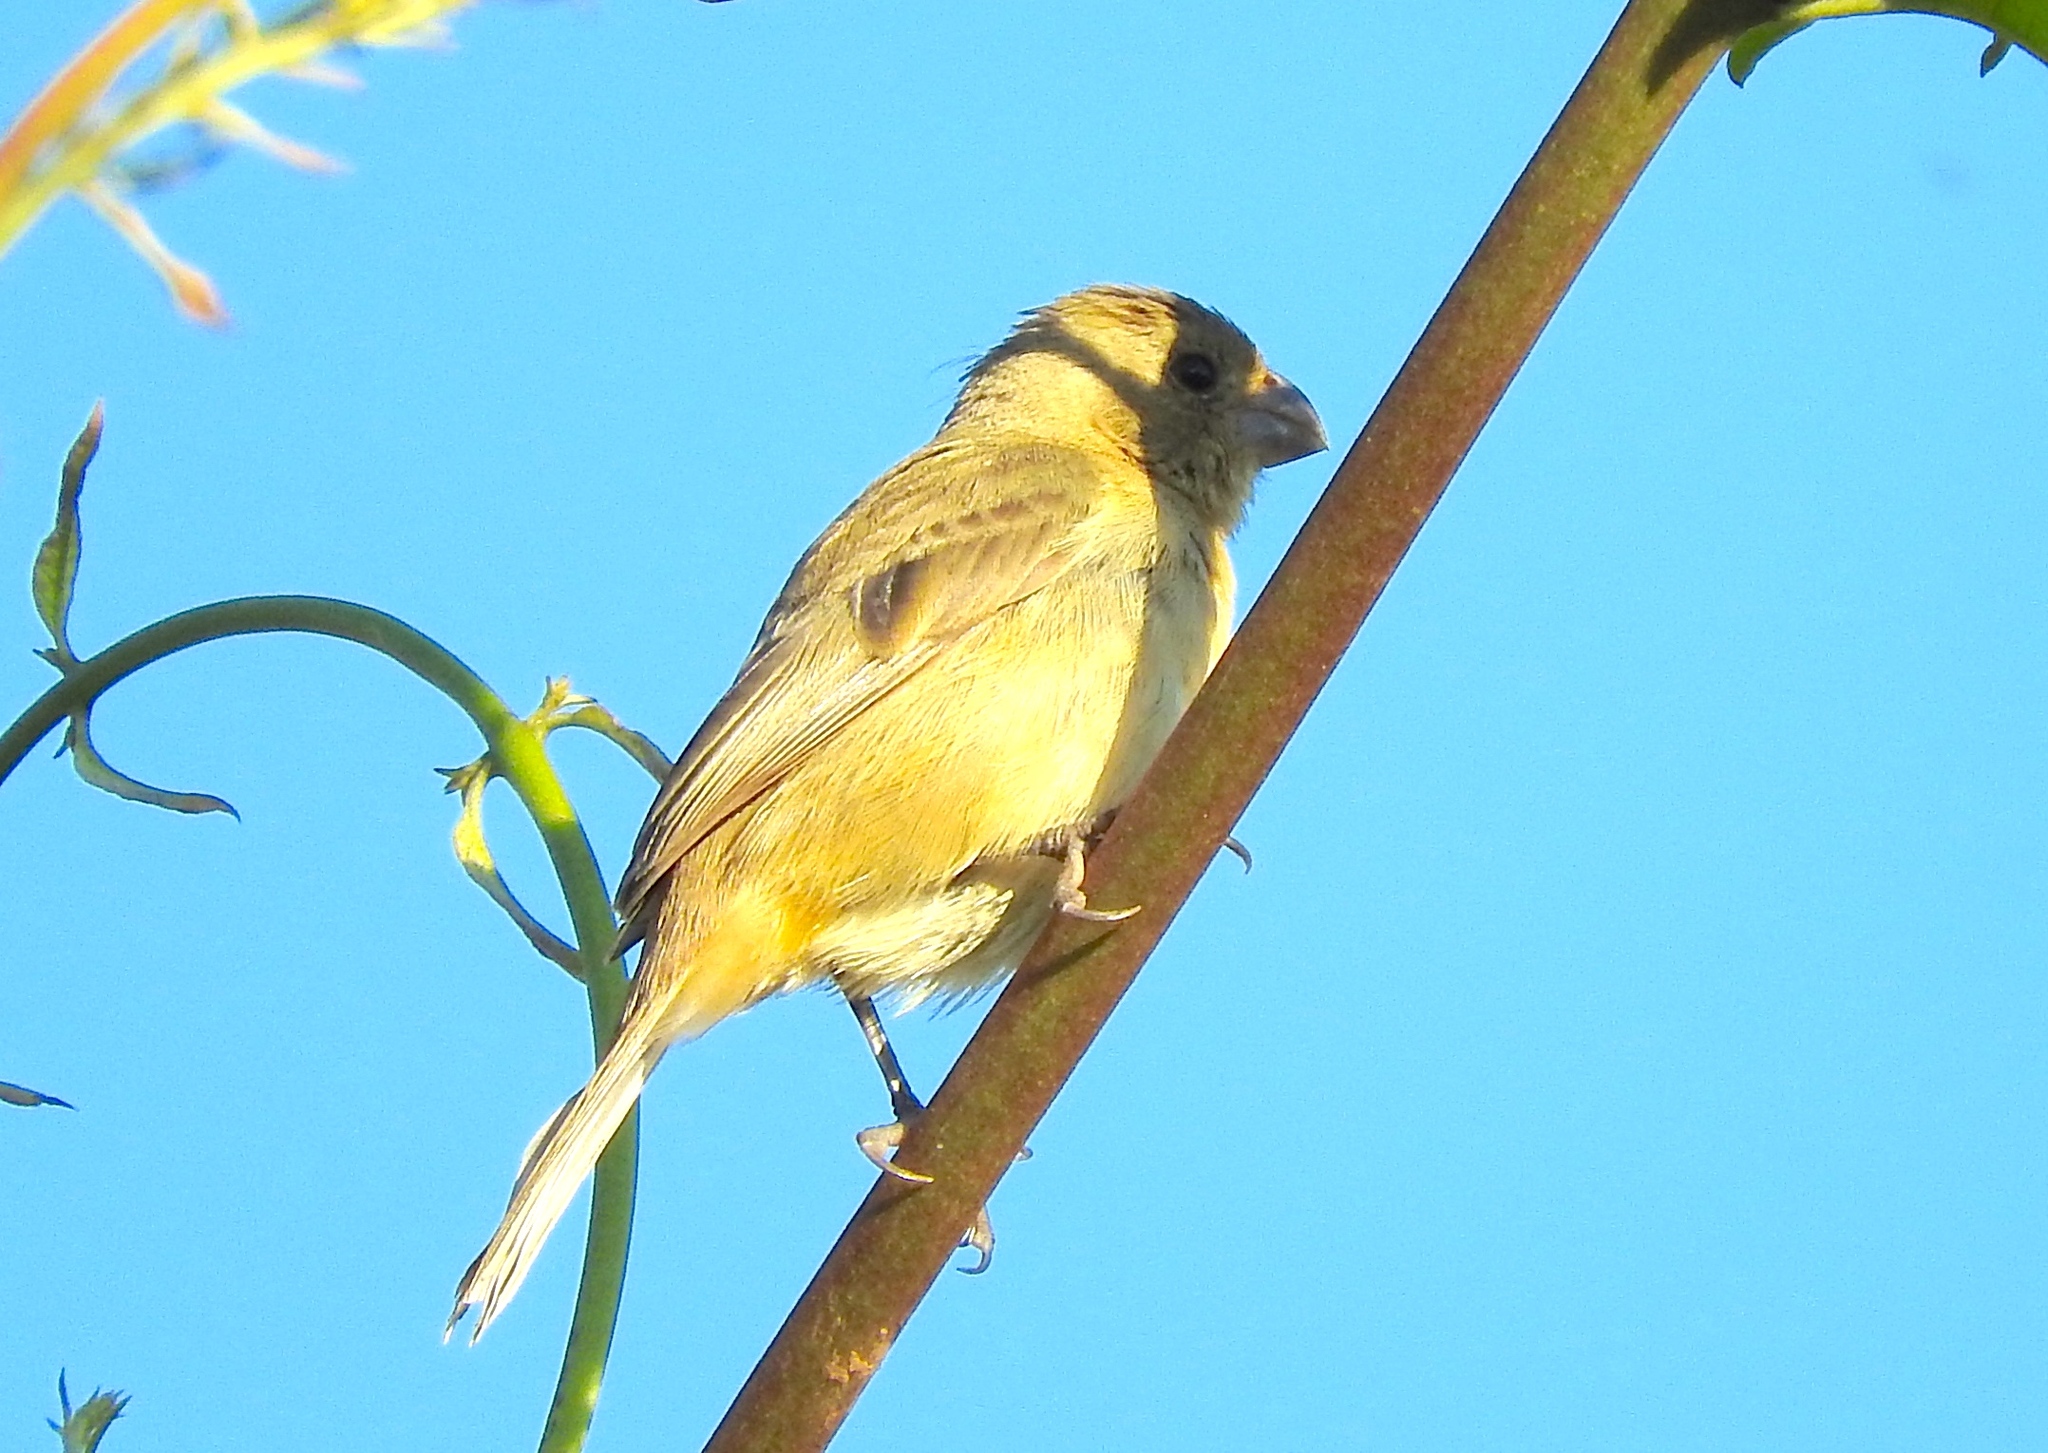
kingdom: Animalia
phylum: Chordata
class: Aves
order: Passeriformes
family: Thraupidae
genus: Sporophila
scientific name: Sporophila torqueola
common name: White-collared seedeater
